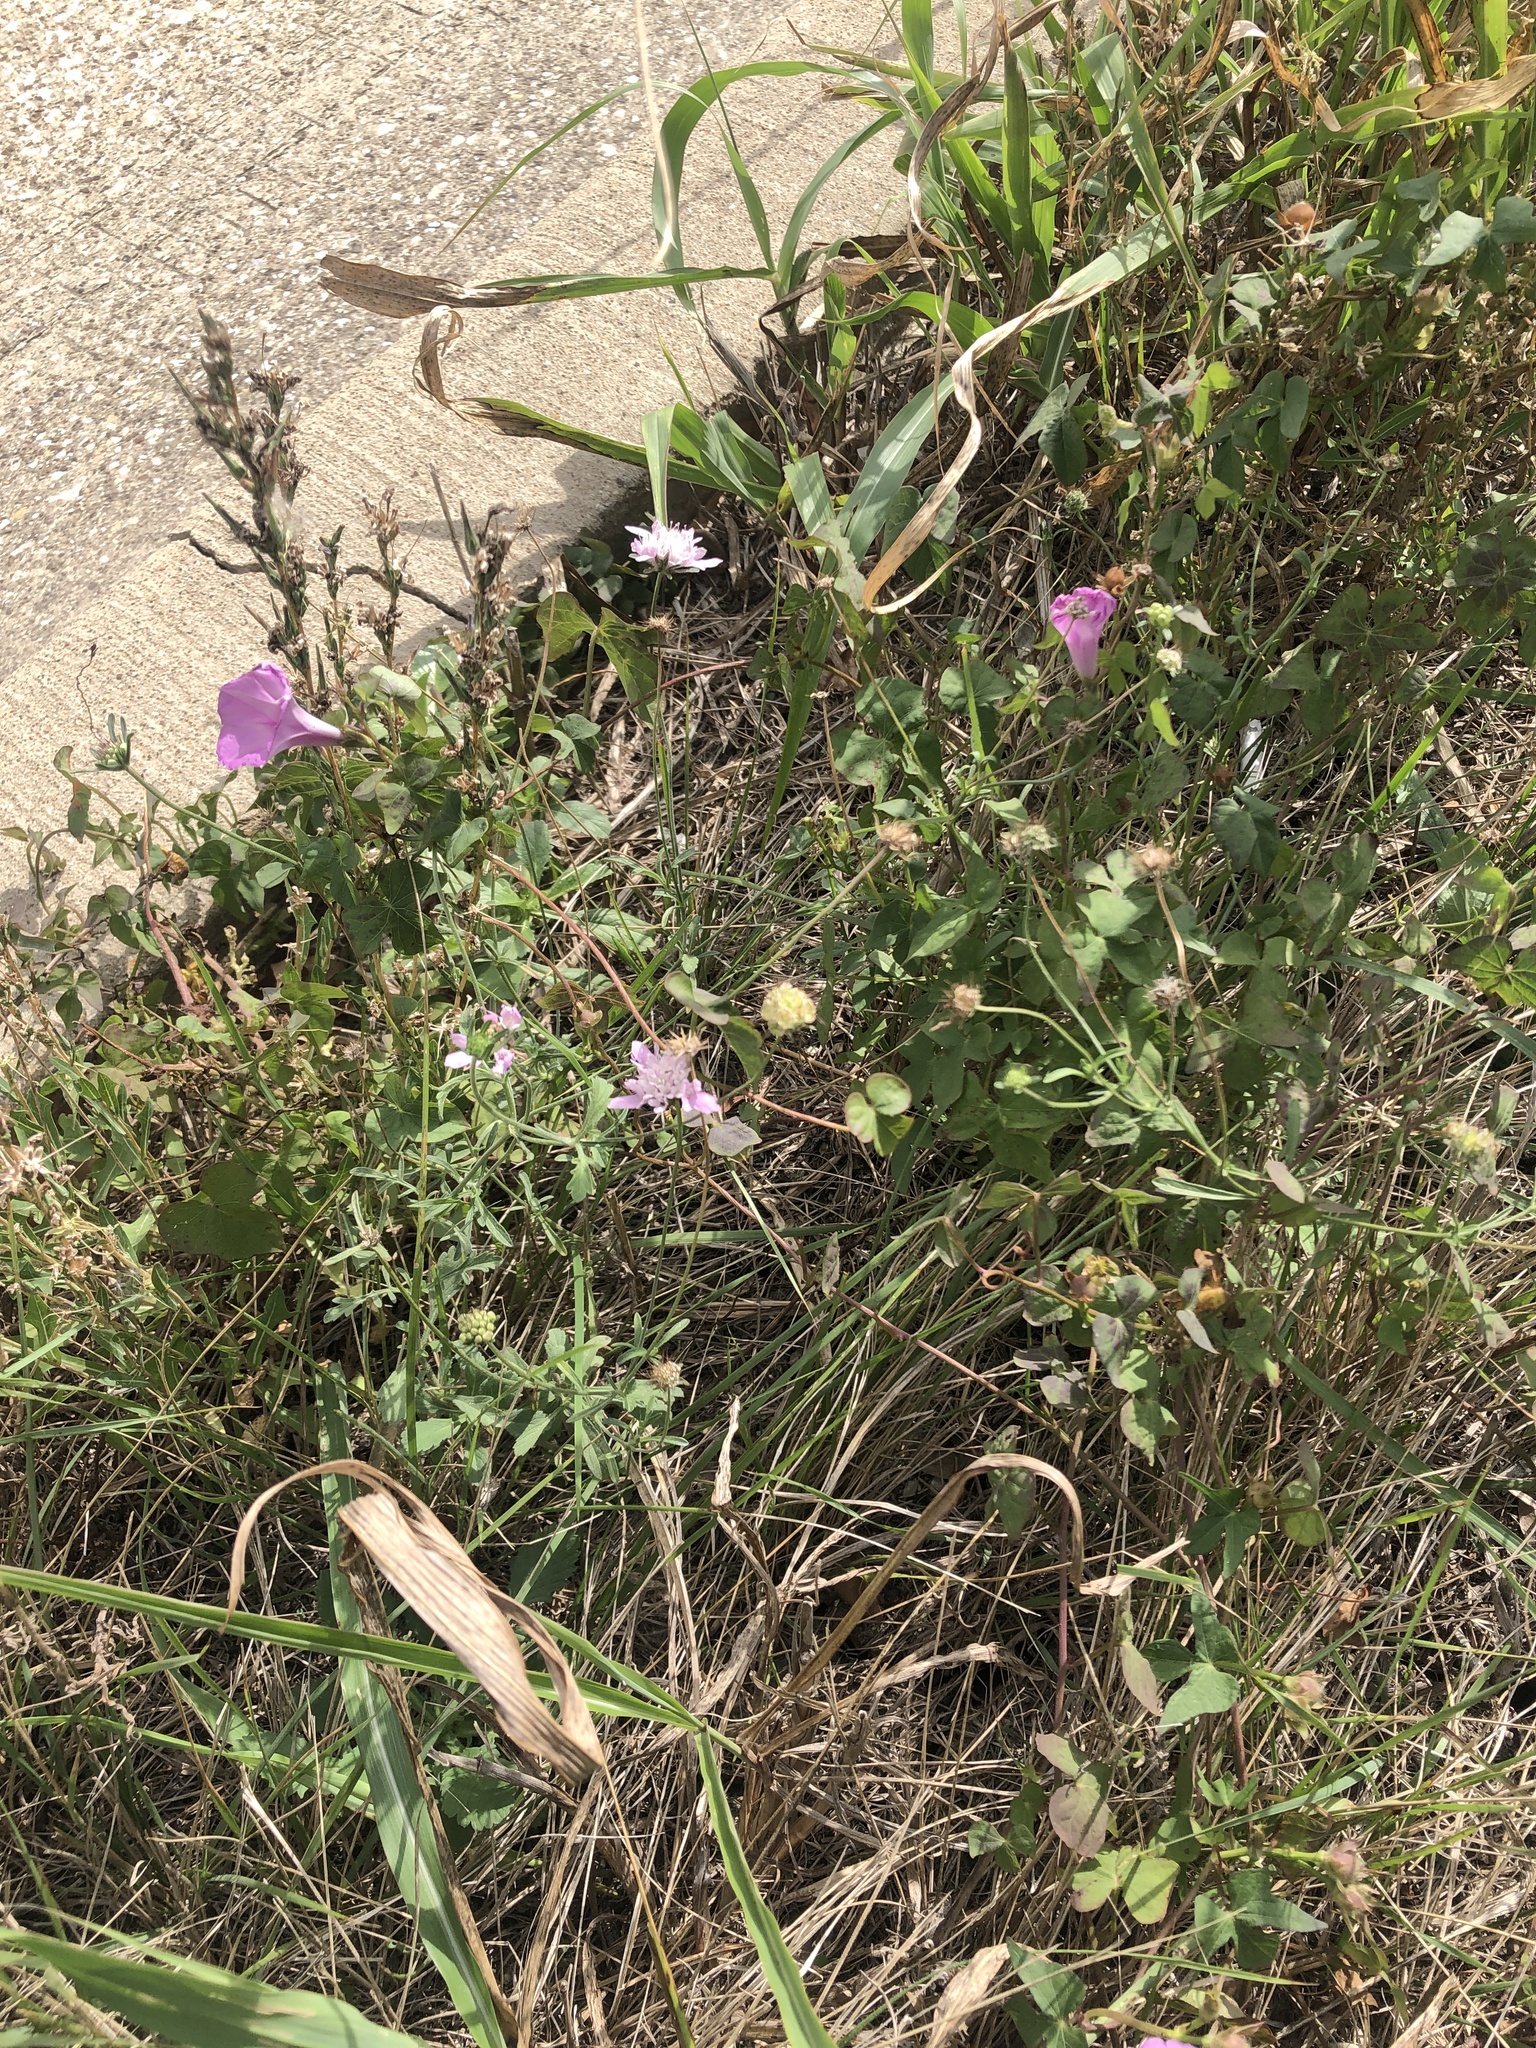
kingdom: Plantae
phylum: Tracheophyta
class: Magnoliopsida
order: Dipsacales
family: Caprifoliaceae
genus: Sixalix
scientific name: Sixalix atropurpurea
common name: Sweet scabious
